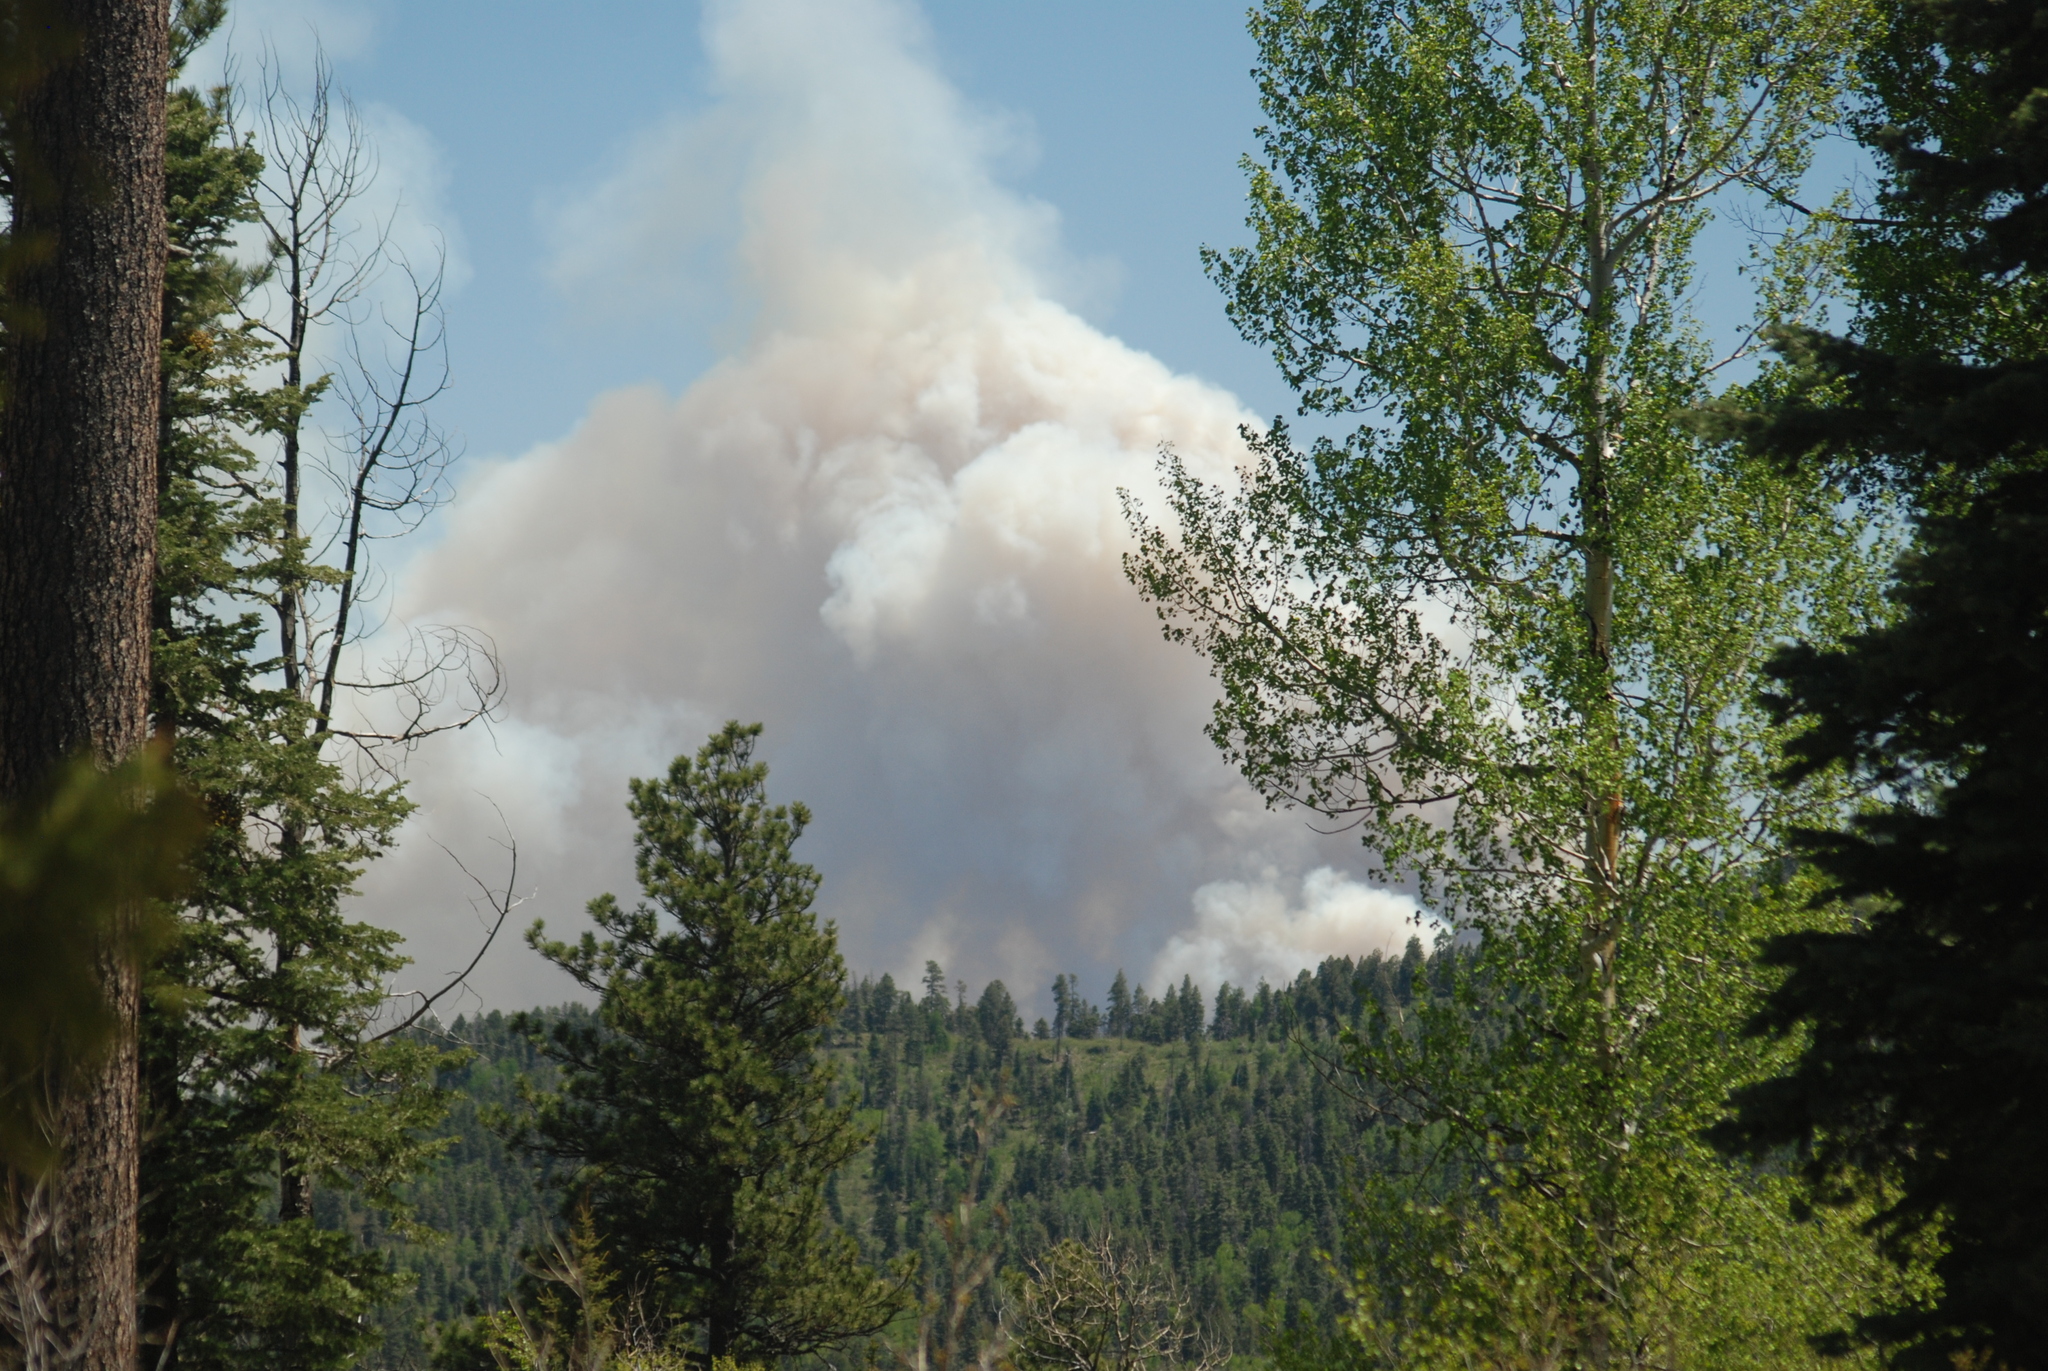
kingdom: Plantae
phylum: Tracheophyta
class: Magnoliopsida
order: Malpighiales
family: Salicaceae
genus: Populus
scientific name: Populus tremuloides
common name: Quaking aspen
